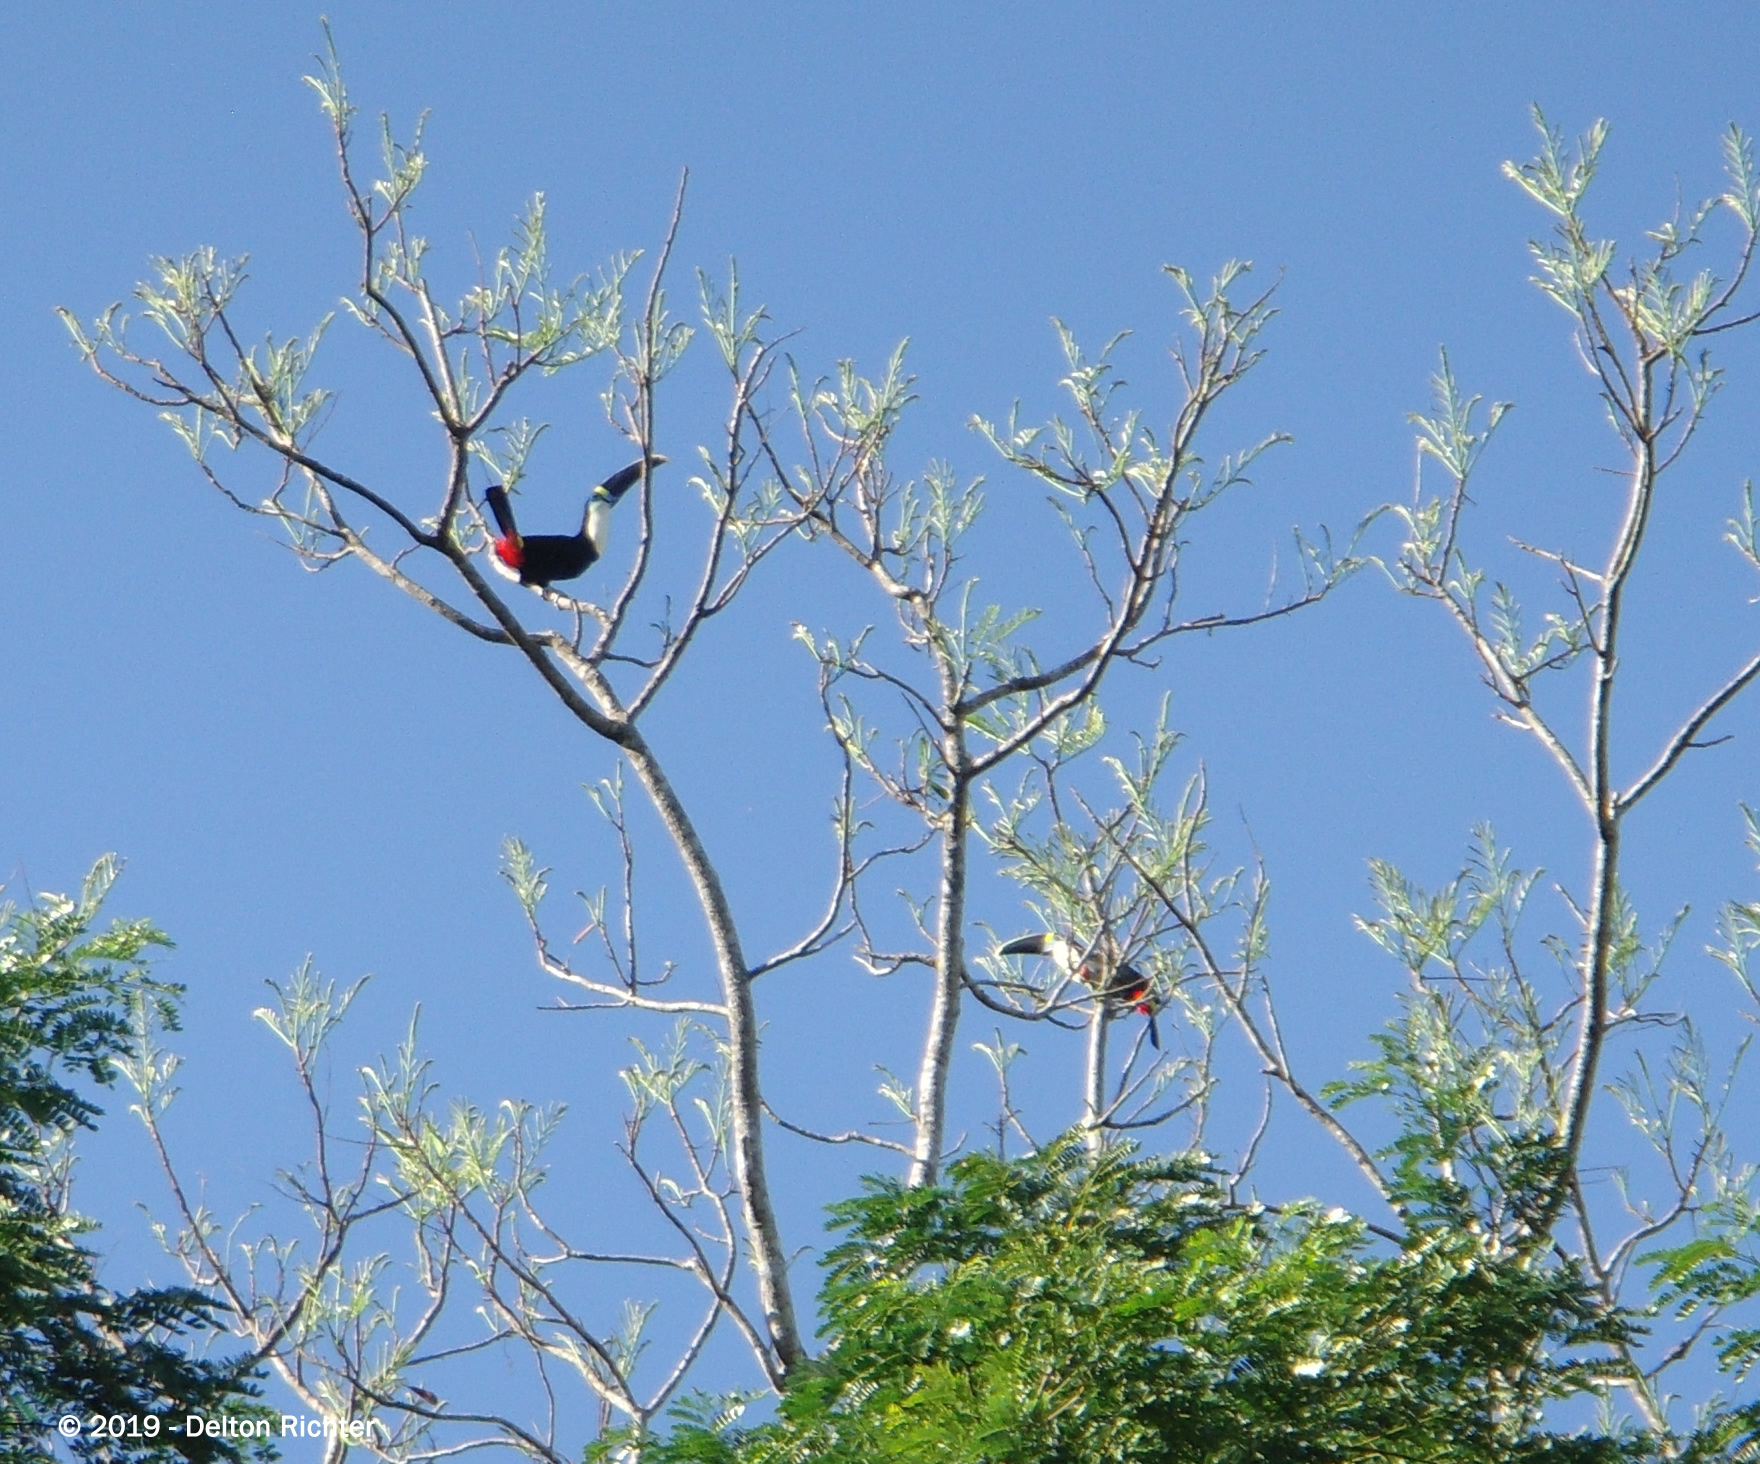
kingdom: Animalia
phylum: Chordata
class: Aves
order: Piciformes
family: Ramphastidae
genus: Ramphastos
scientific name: Ramphastos tucanus
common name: White-throated toucan
